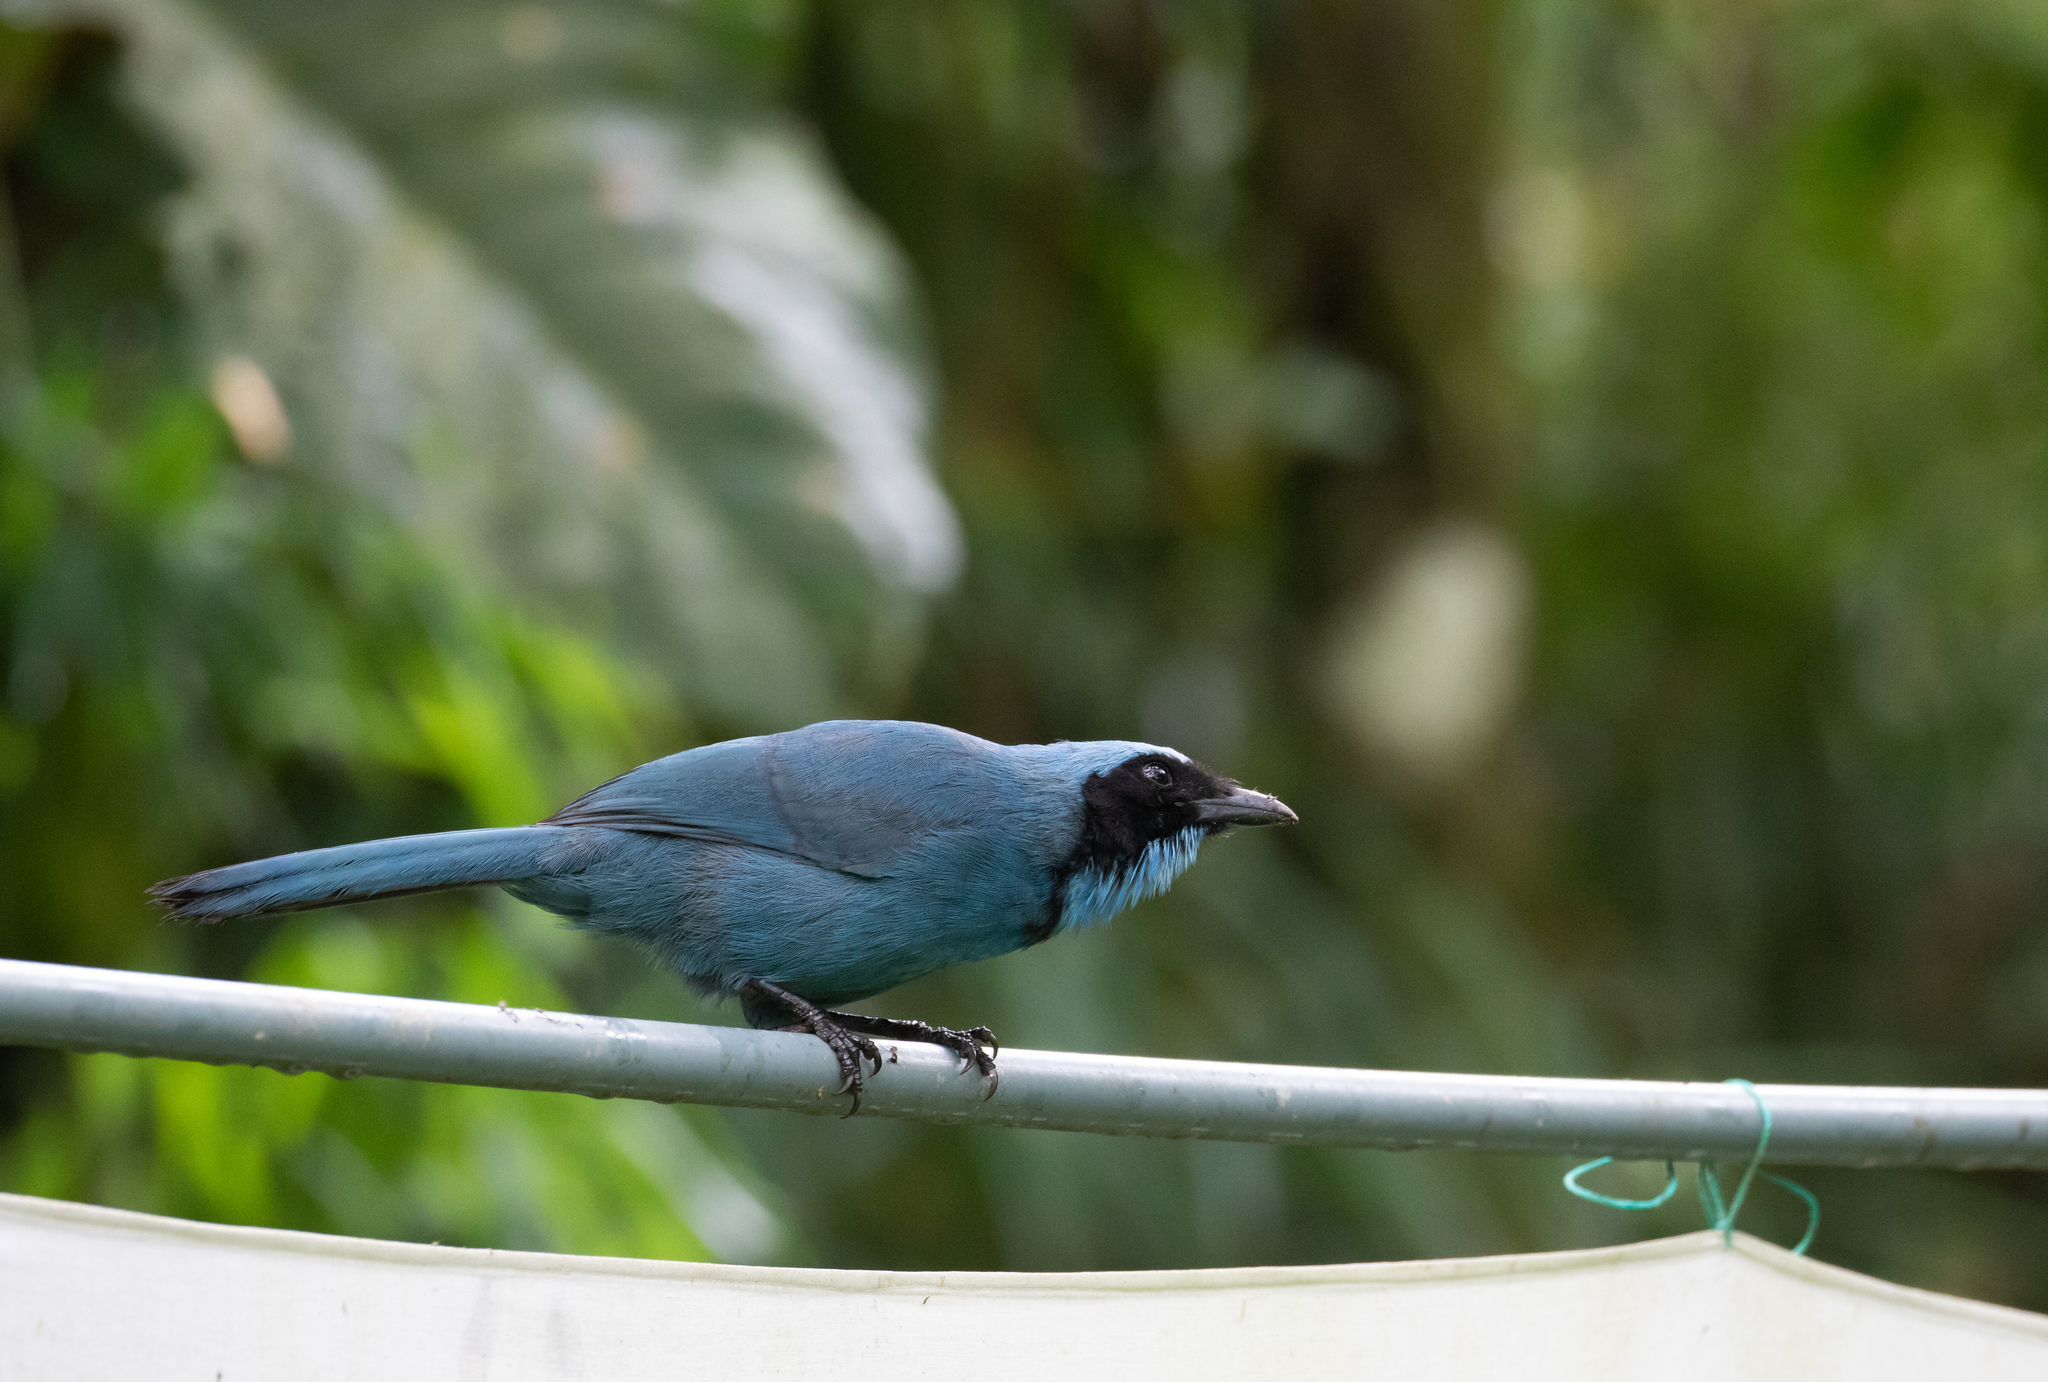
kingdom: Animalia
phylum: Chordata
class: Aves
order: Passeriformes
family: Corvidae
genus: Cyanolyca
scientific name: Cyanolyca turcosa
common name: Turquoise jay
